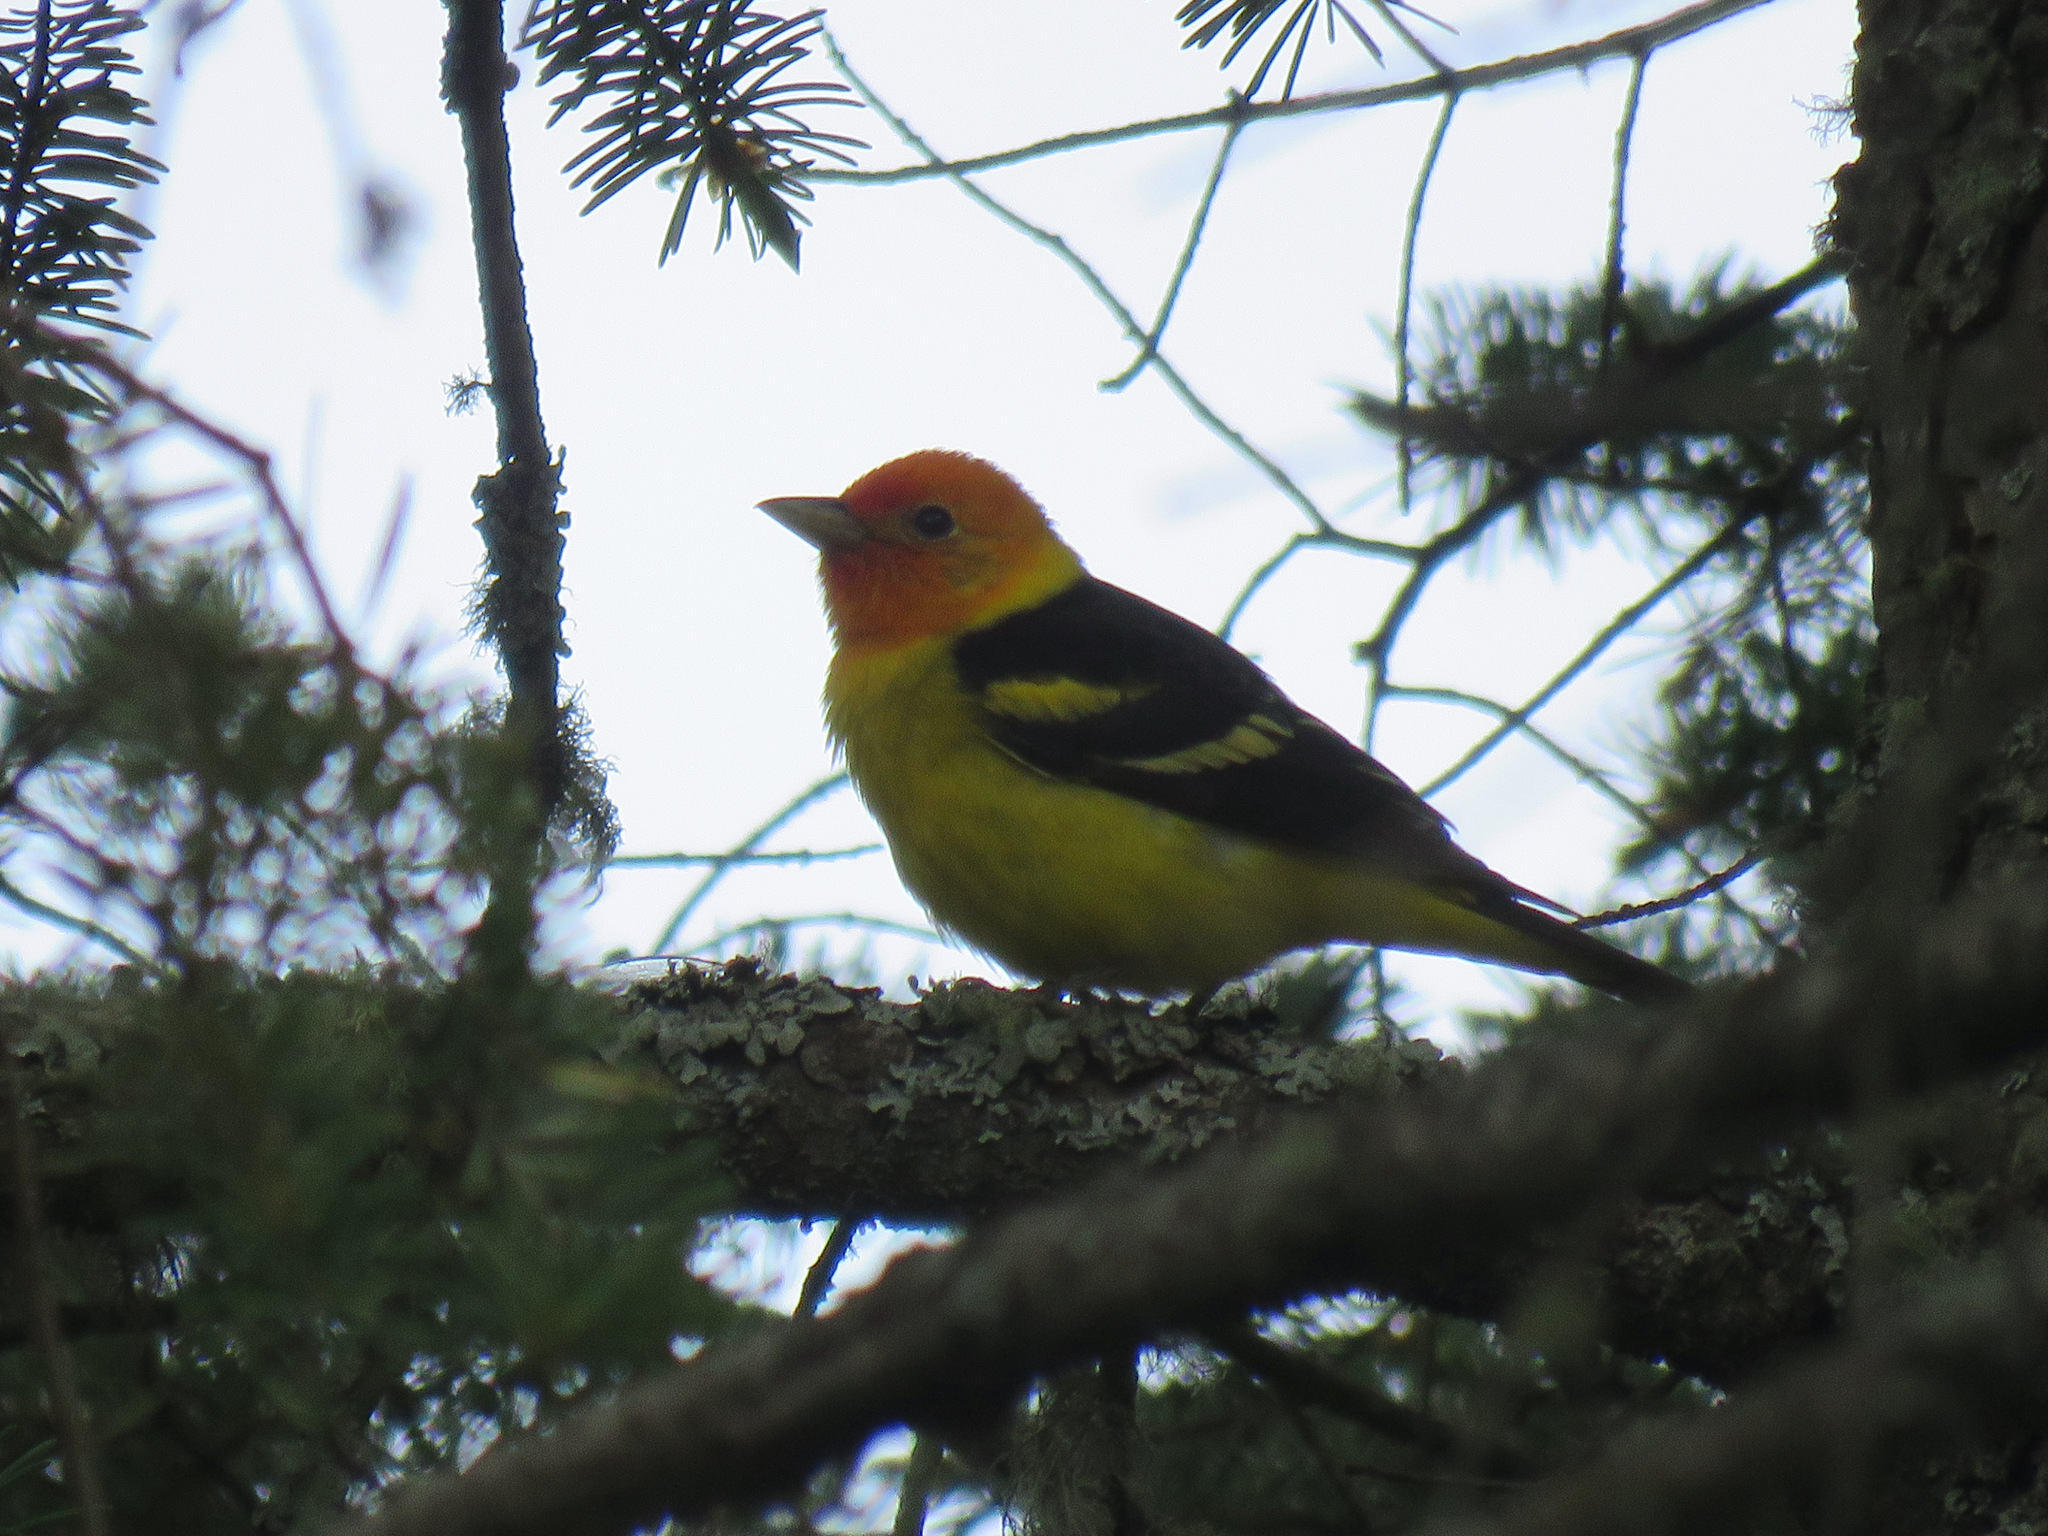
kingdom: Animalia
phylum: Chordata
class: Aves
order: Passeriformes
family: Cardinalidae
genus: Piranga
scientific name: Piranga ludoviciana
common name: Western tanager
